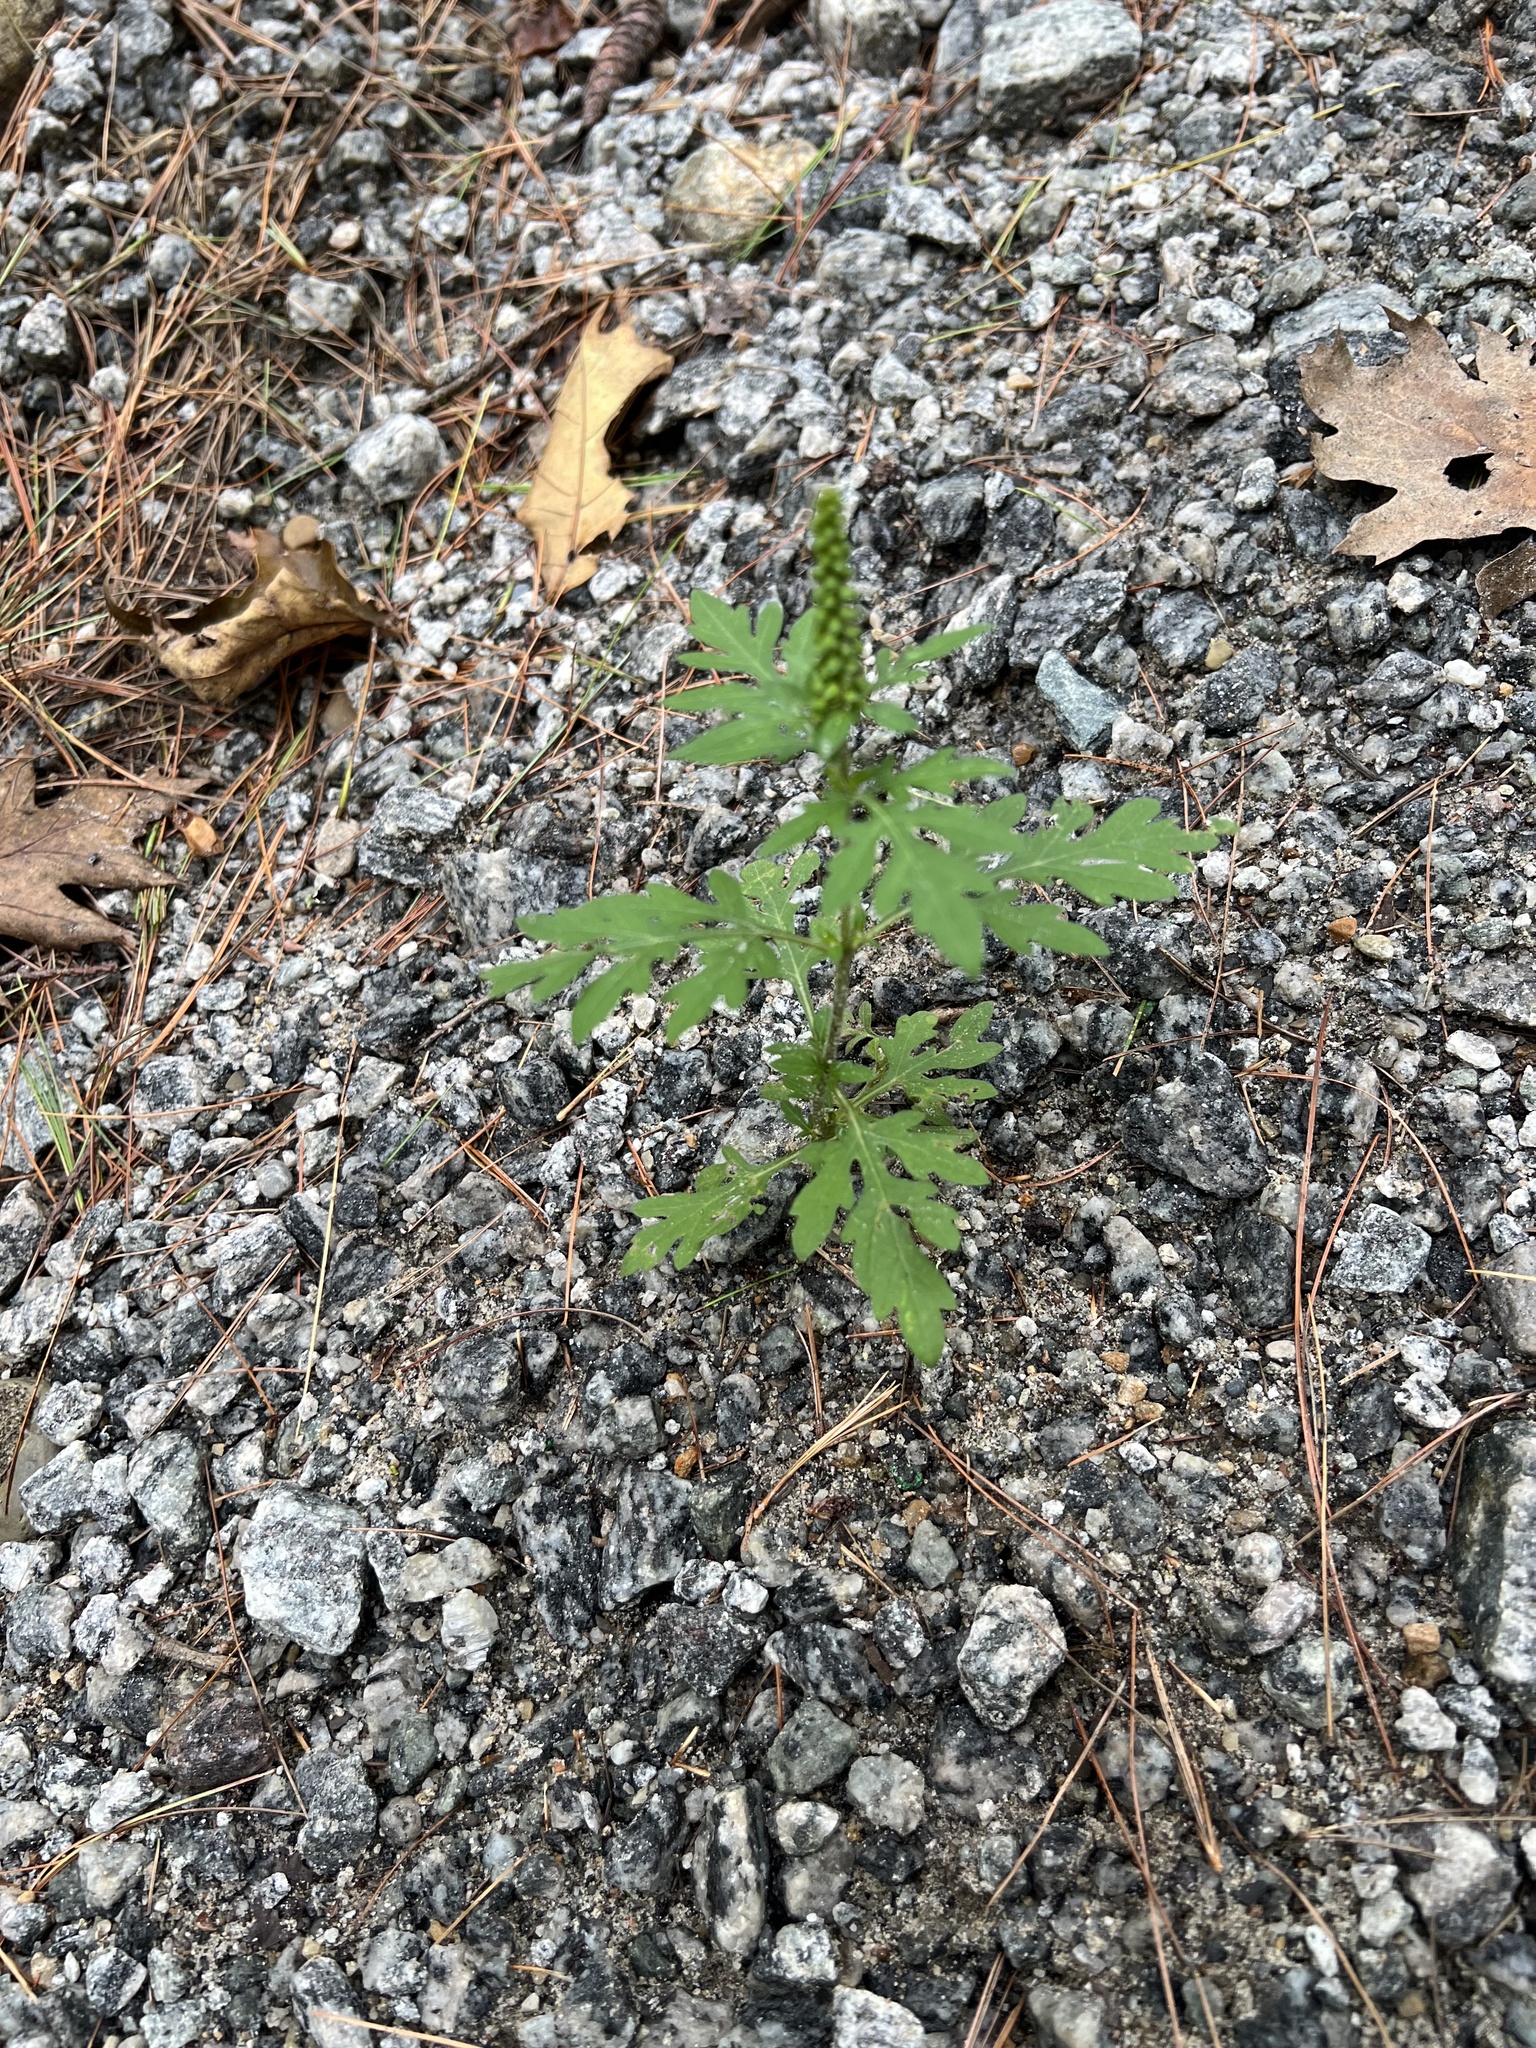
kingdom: Plantae
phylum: Tracheophyta
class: Magnoliopsida
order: Asterales
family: Asteraceae
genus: Ambrosia
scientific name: Ambrosia artemisiifolia
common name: Annual ragweed
